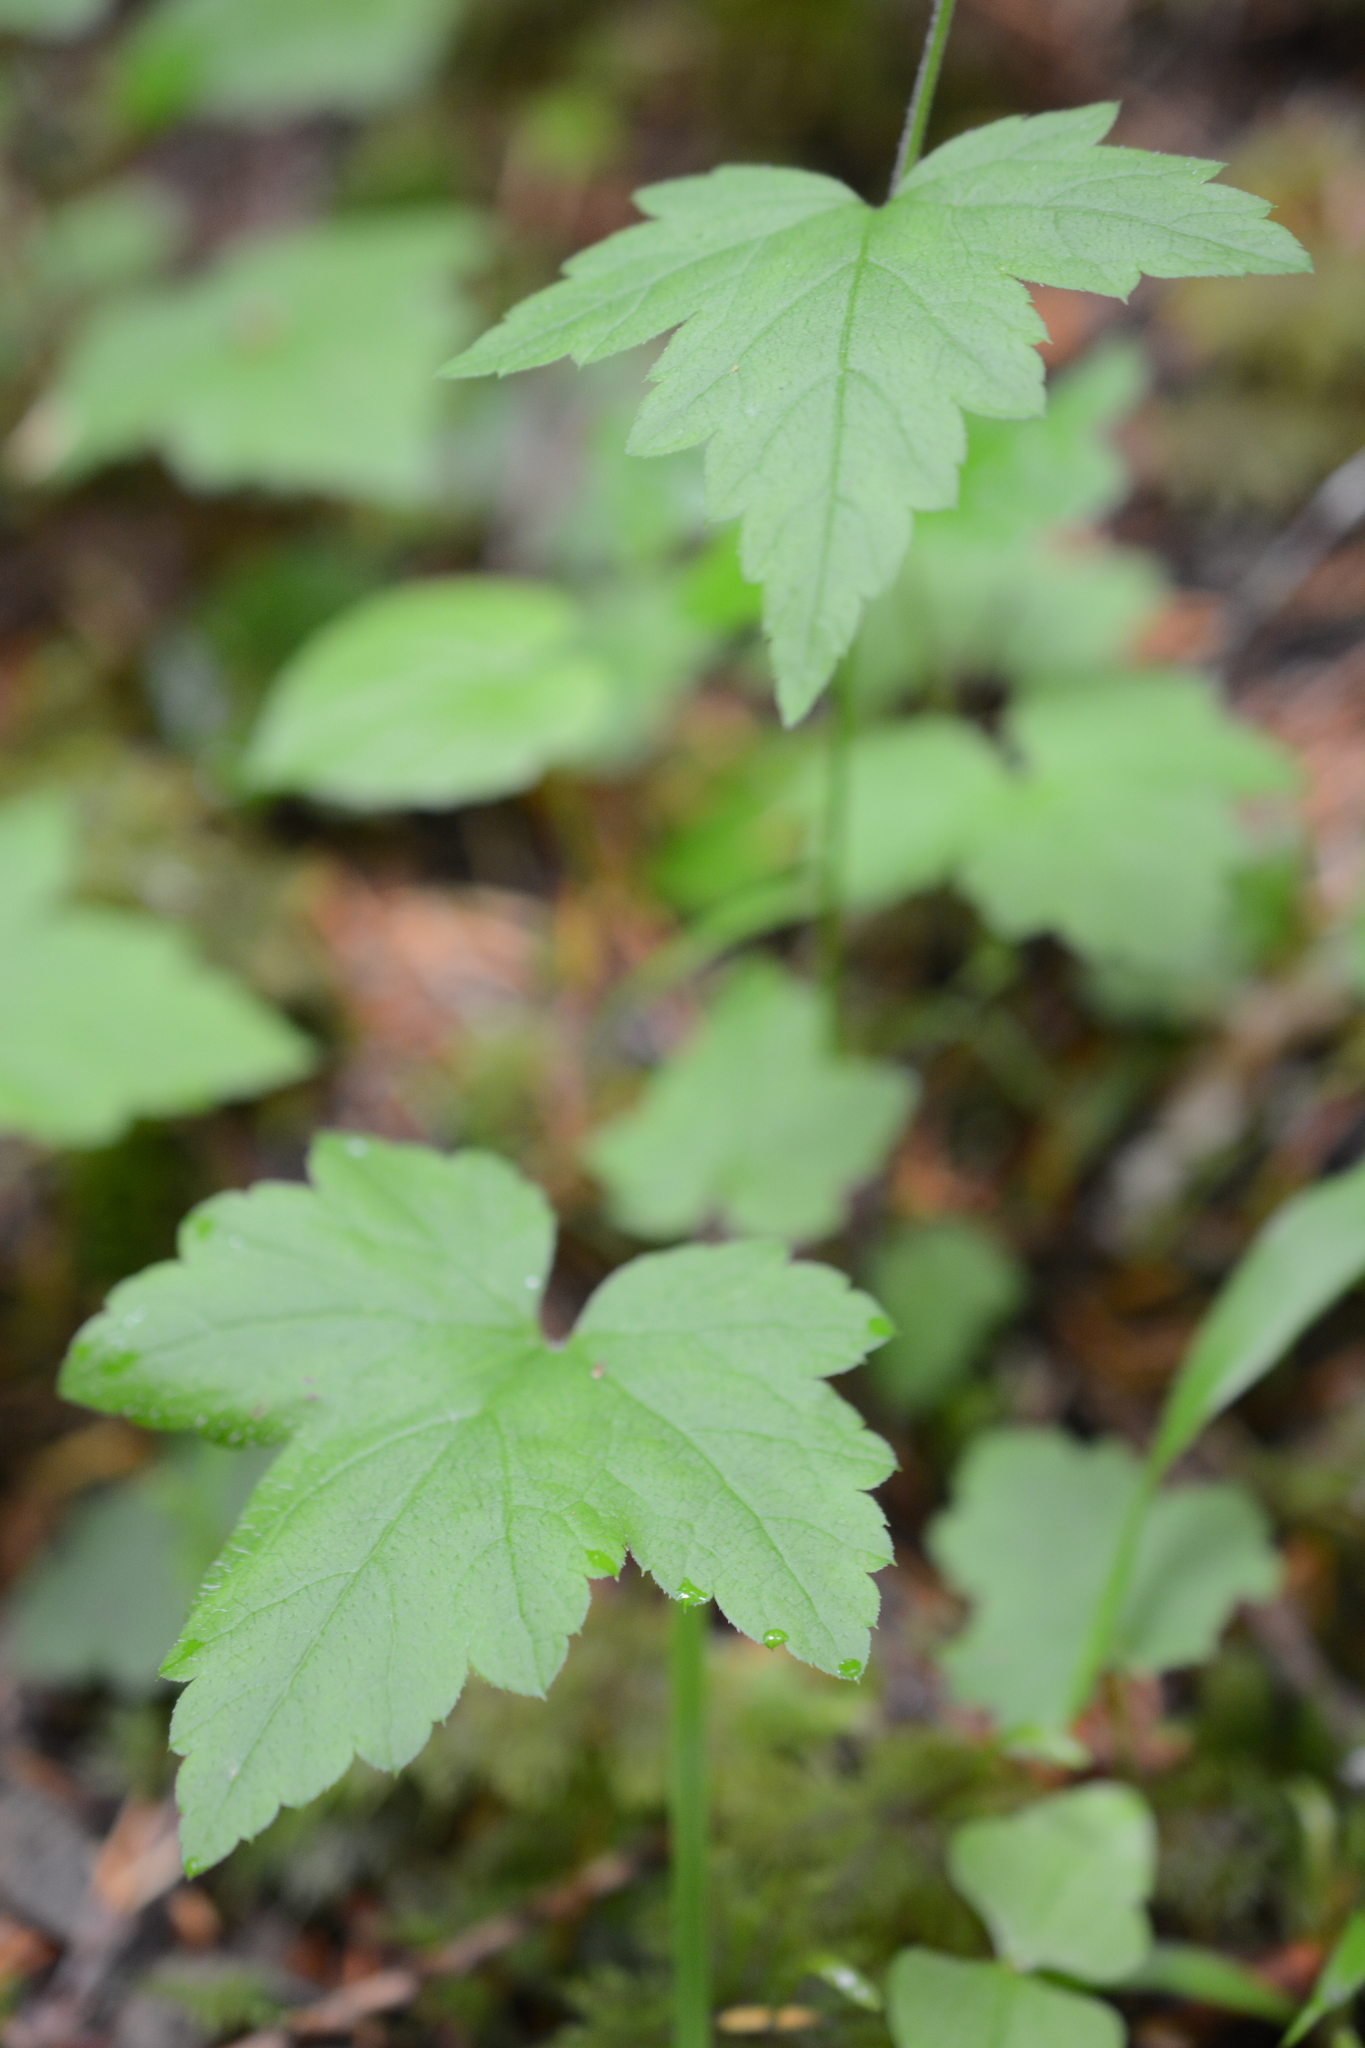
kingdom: Plantae
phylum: Tracheophyta
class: Magnoliopsida
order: Saxifragales
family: Saxifragaceae
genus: Tiarella
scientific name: Tiarella trifoliata
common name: Sugar-scoop
